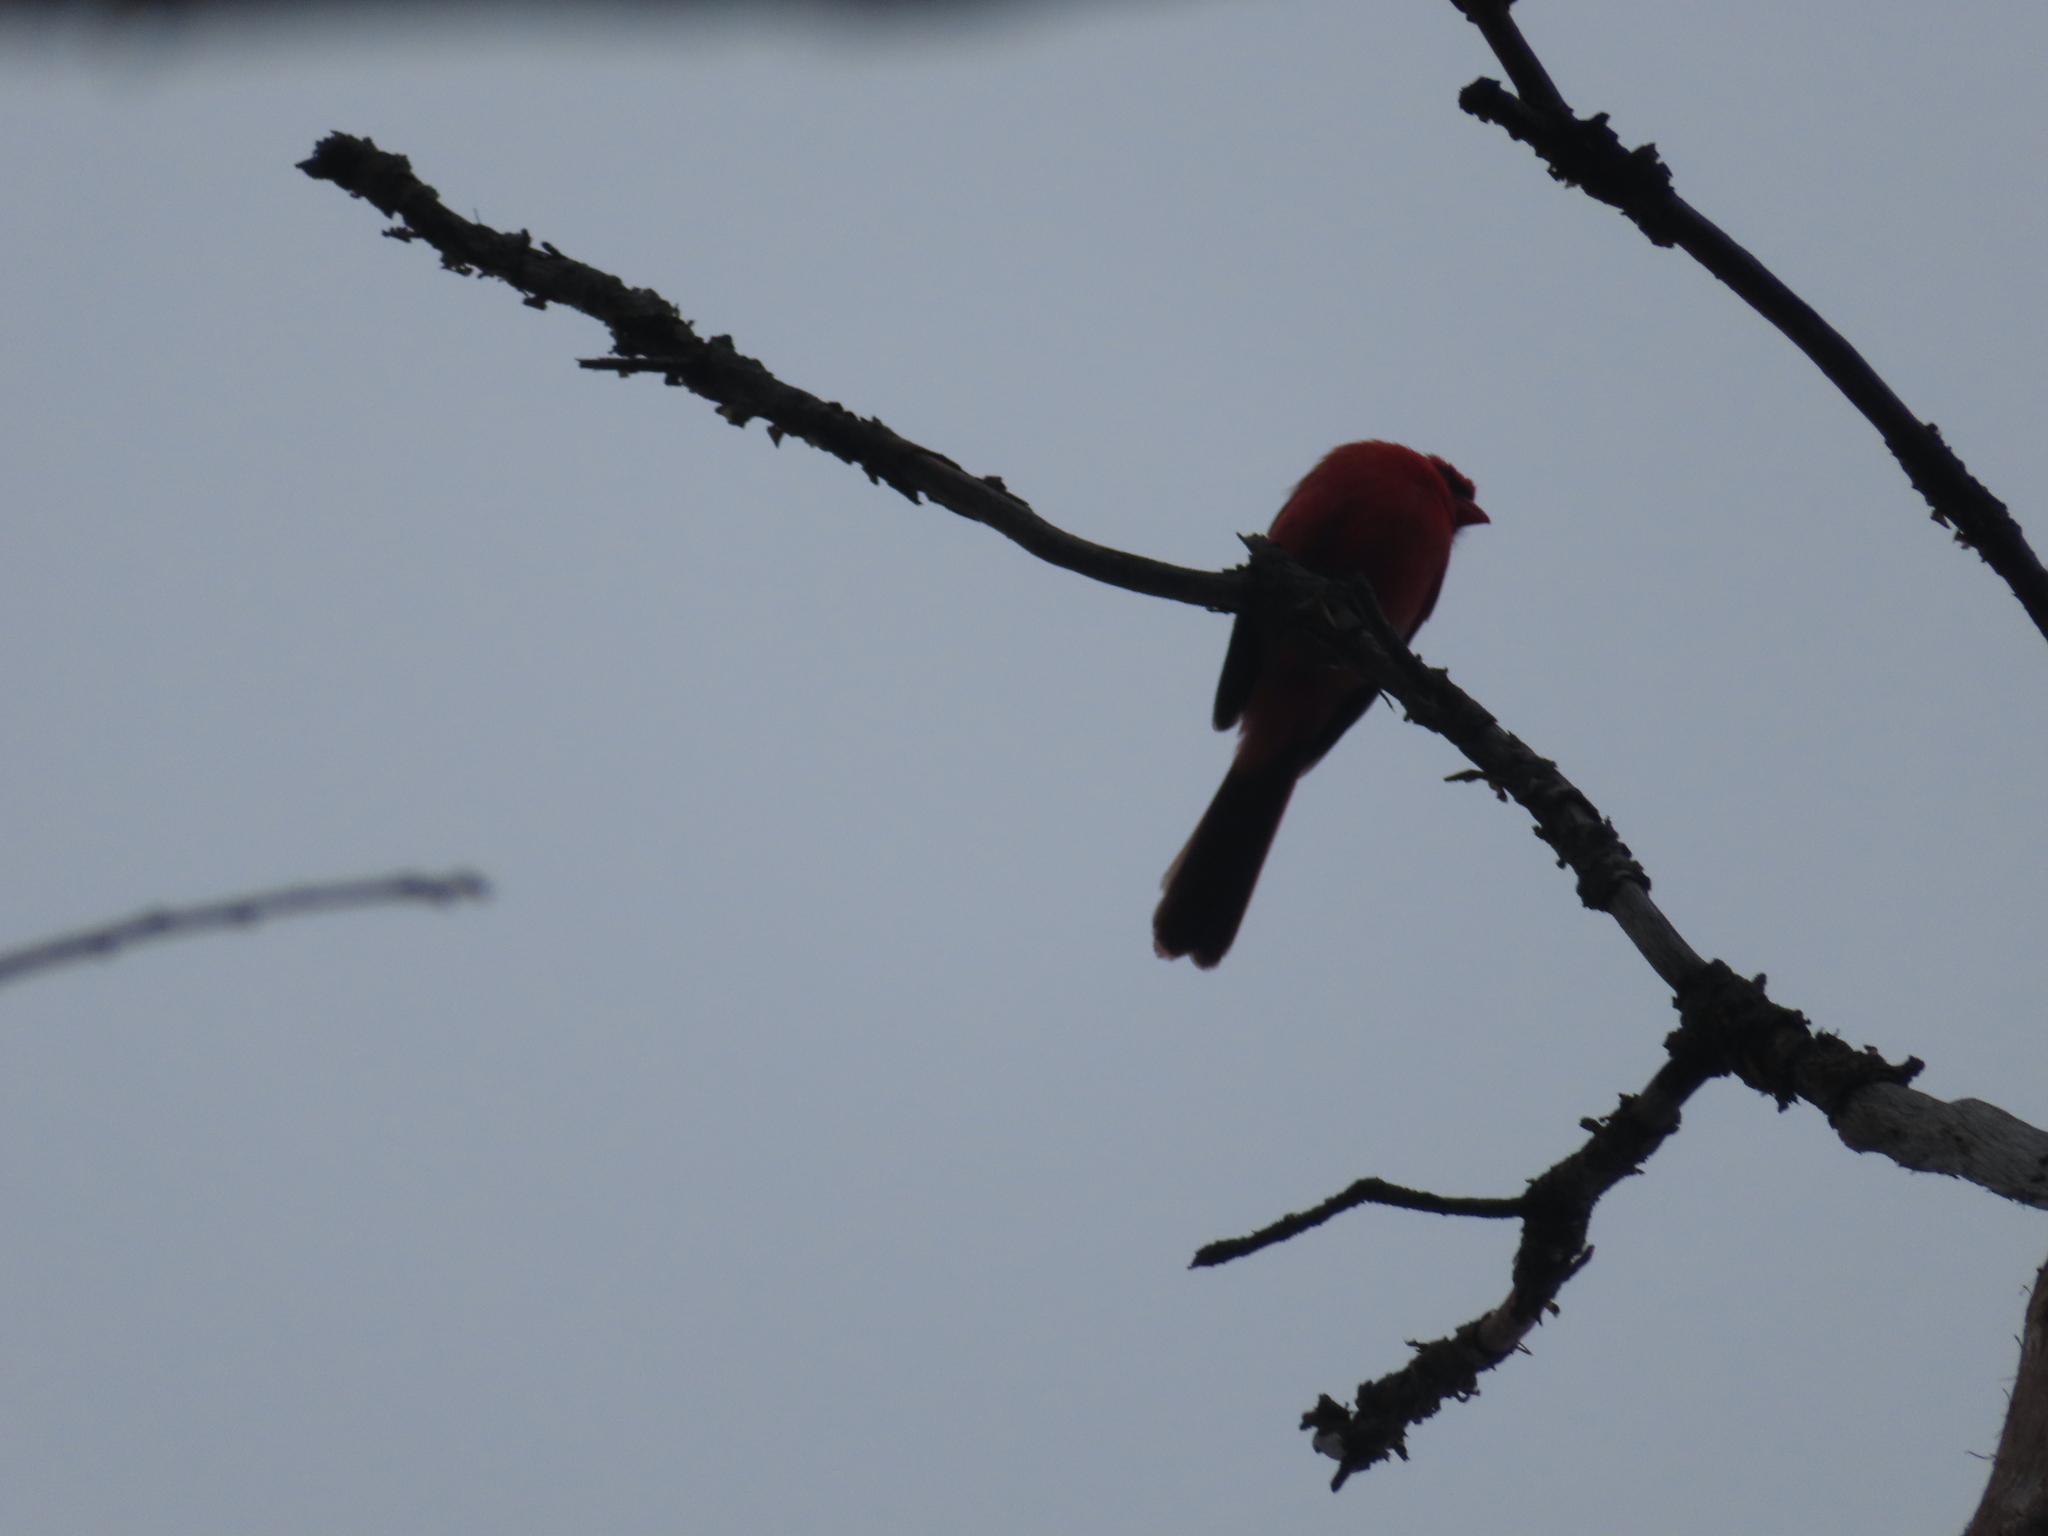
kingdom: Animalia
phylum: Chordata
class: Aves
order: Passeriformes
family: Cardinalidae
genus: Cardinalis
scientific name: Cardinalis cardinalis
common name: Northern cardinal
